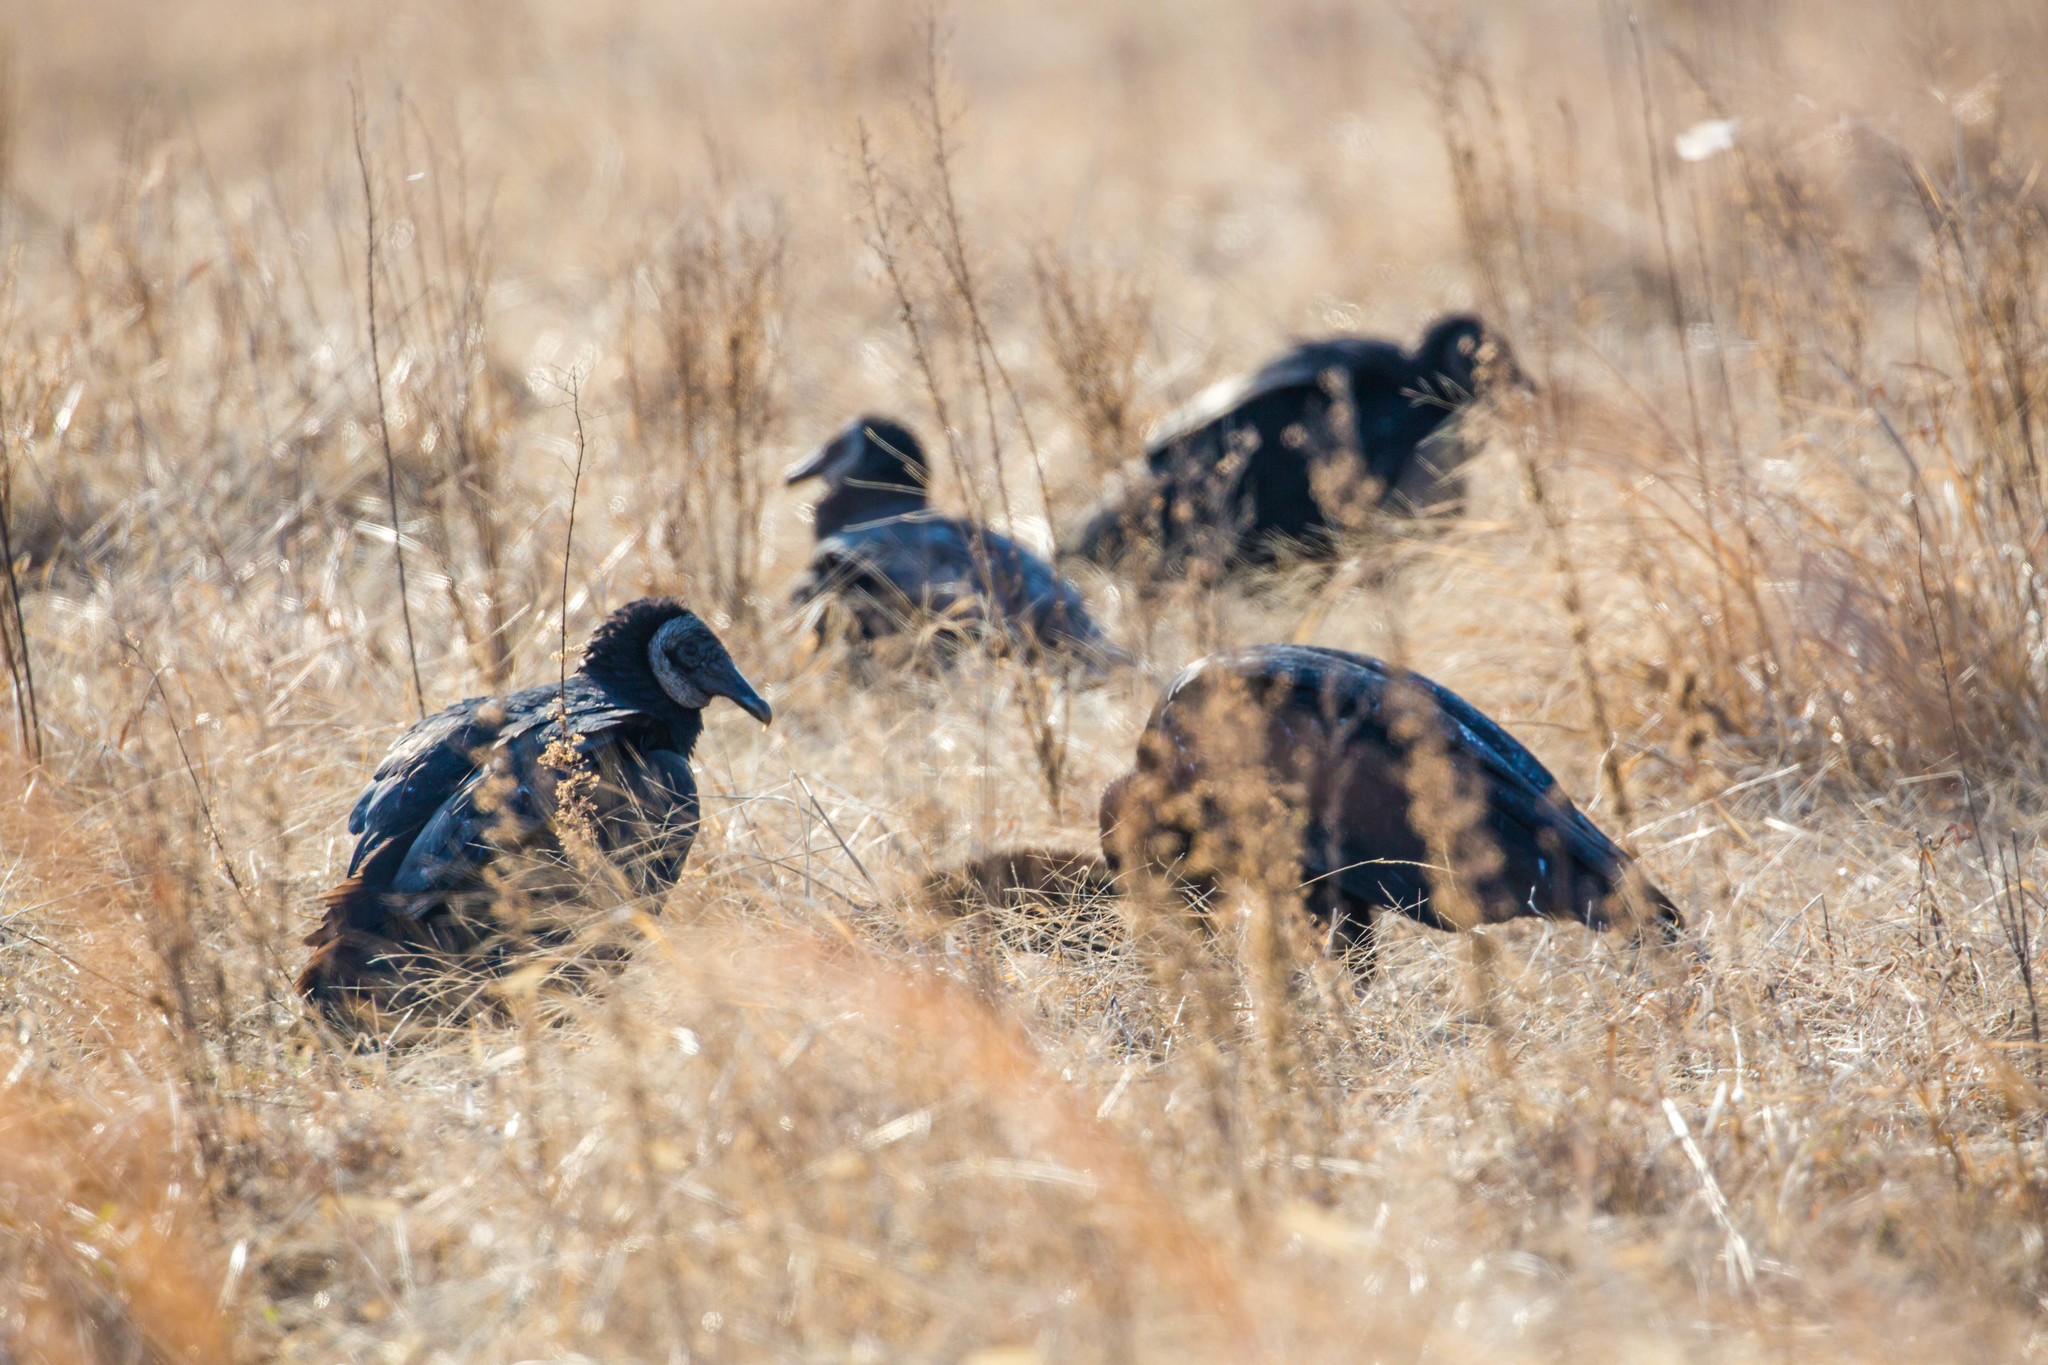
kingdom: Animalia
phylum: Chordata
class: Aves
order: Accipitriformes
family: Cathartidae
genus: Coragyps
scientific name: Coragyps atratus
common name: Black vulture
